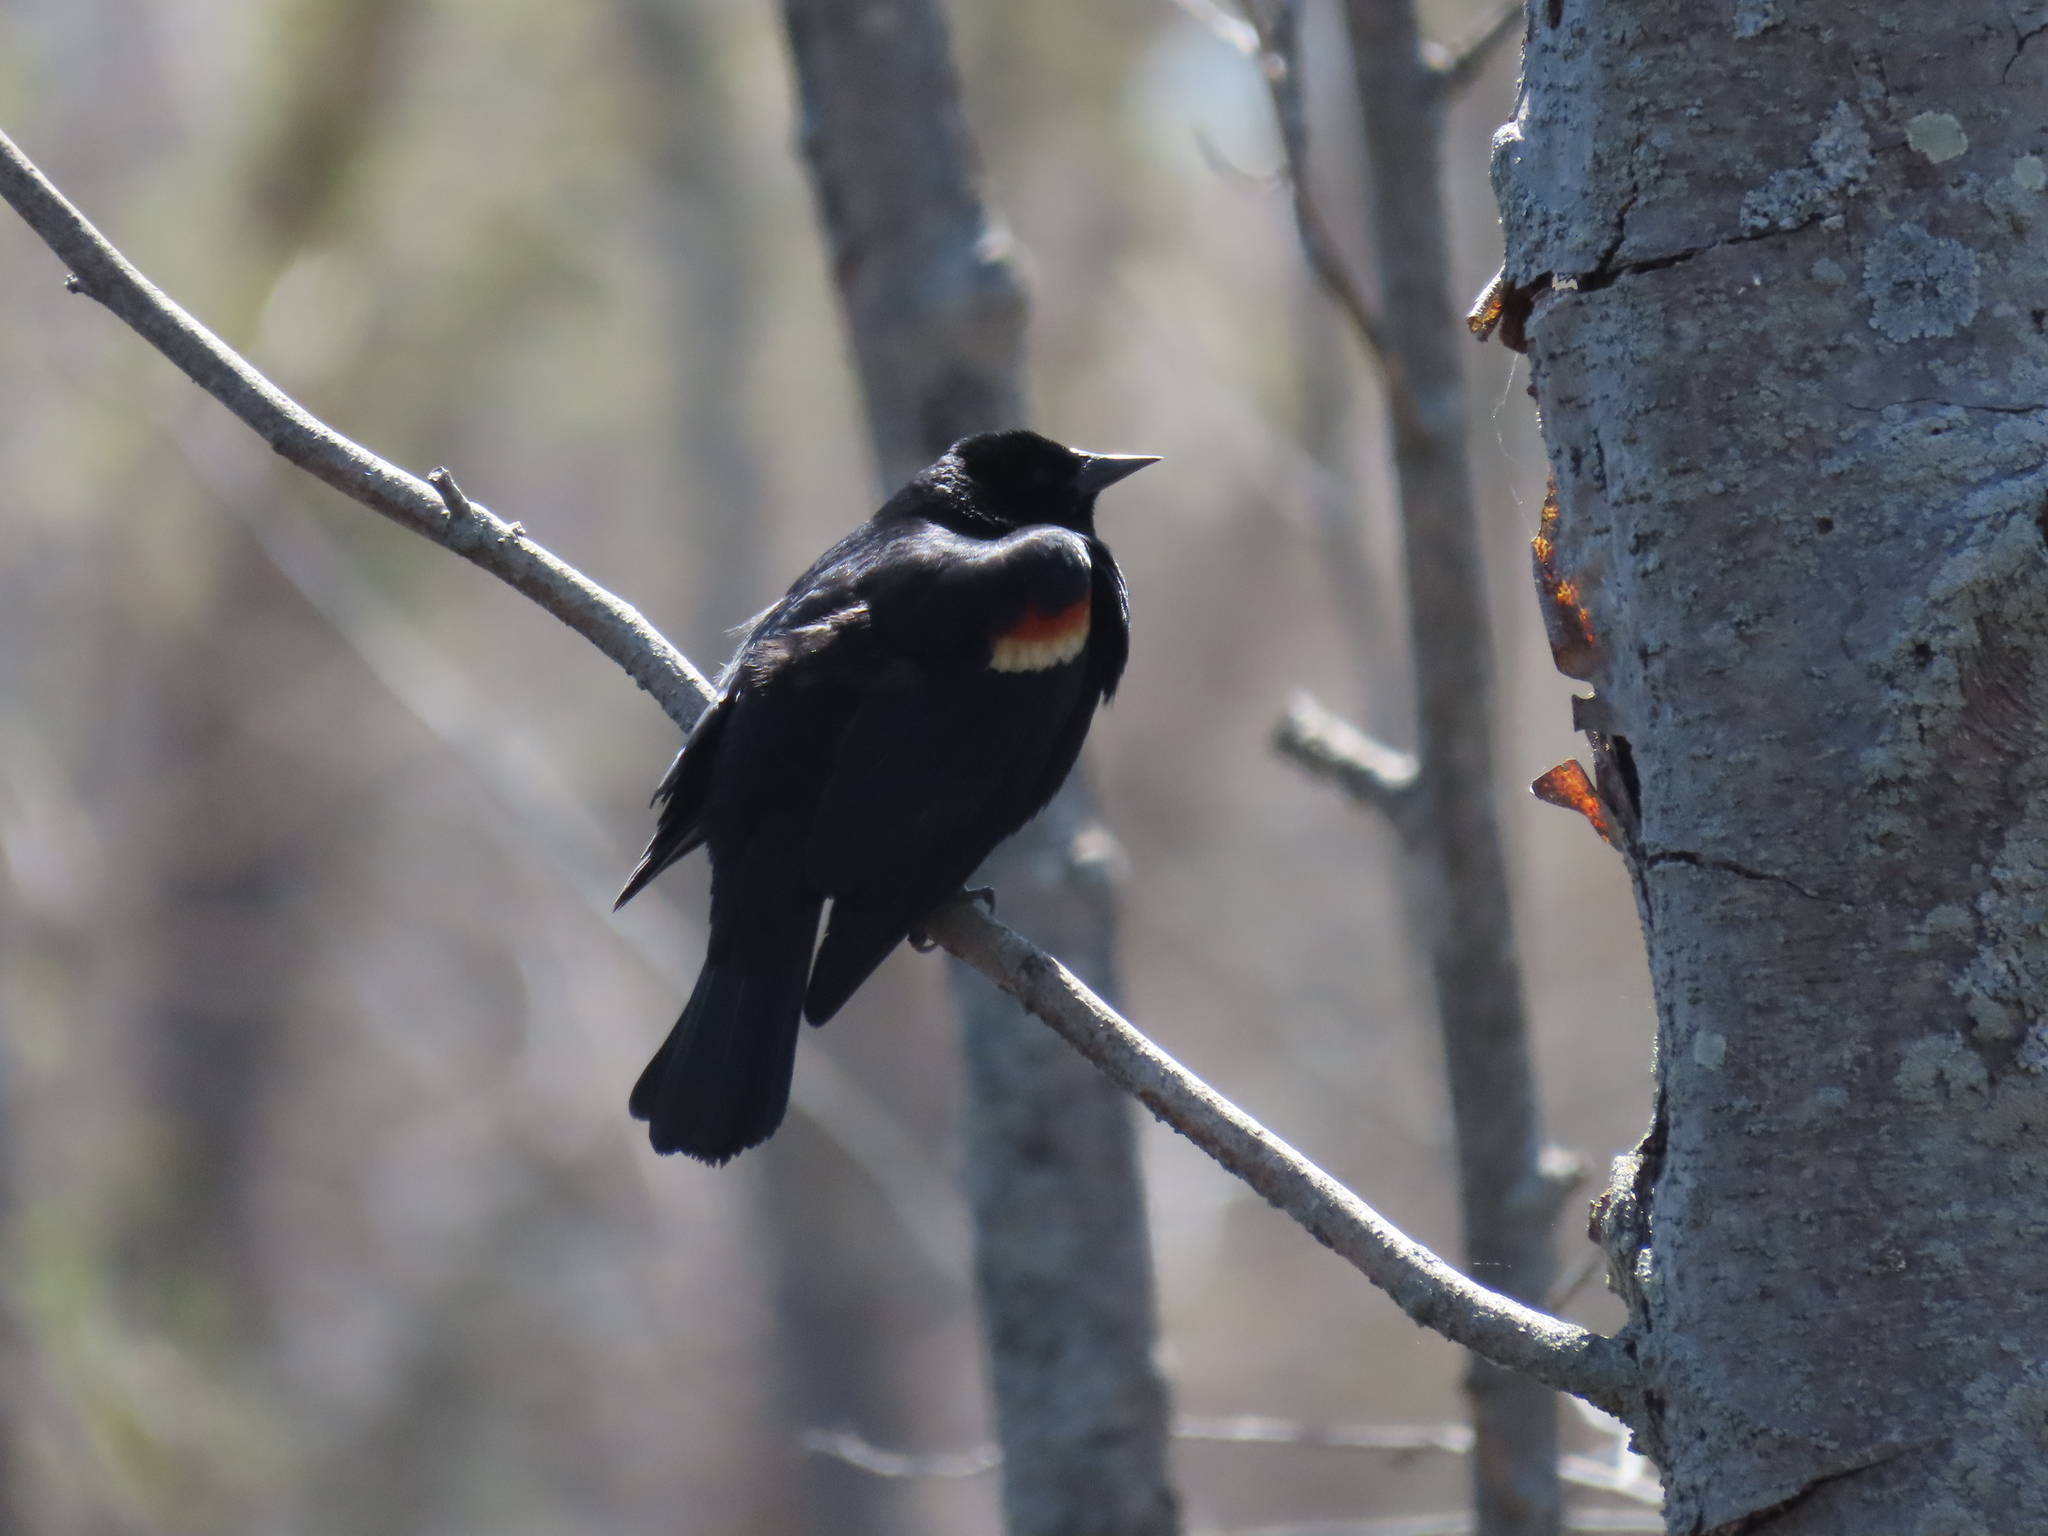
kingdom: Animalia
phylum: Chordata
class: Aves
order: Passeriformes
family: Icteridae
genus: Agelaius
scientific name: Agelaius phoeniceus
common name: Red-winged blackbird
